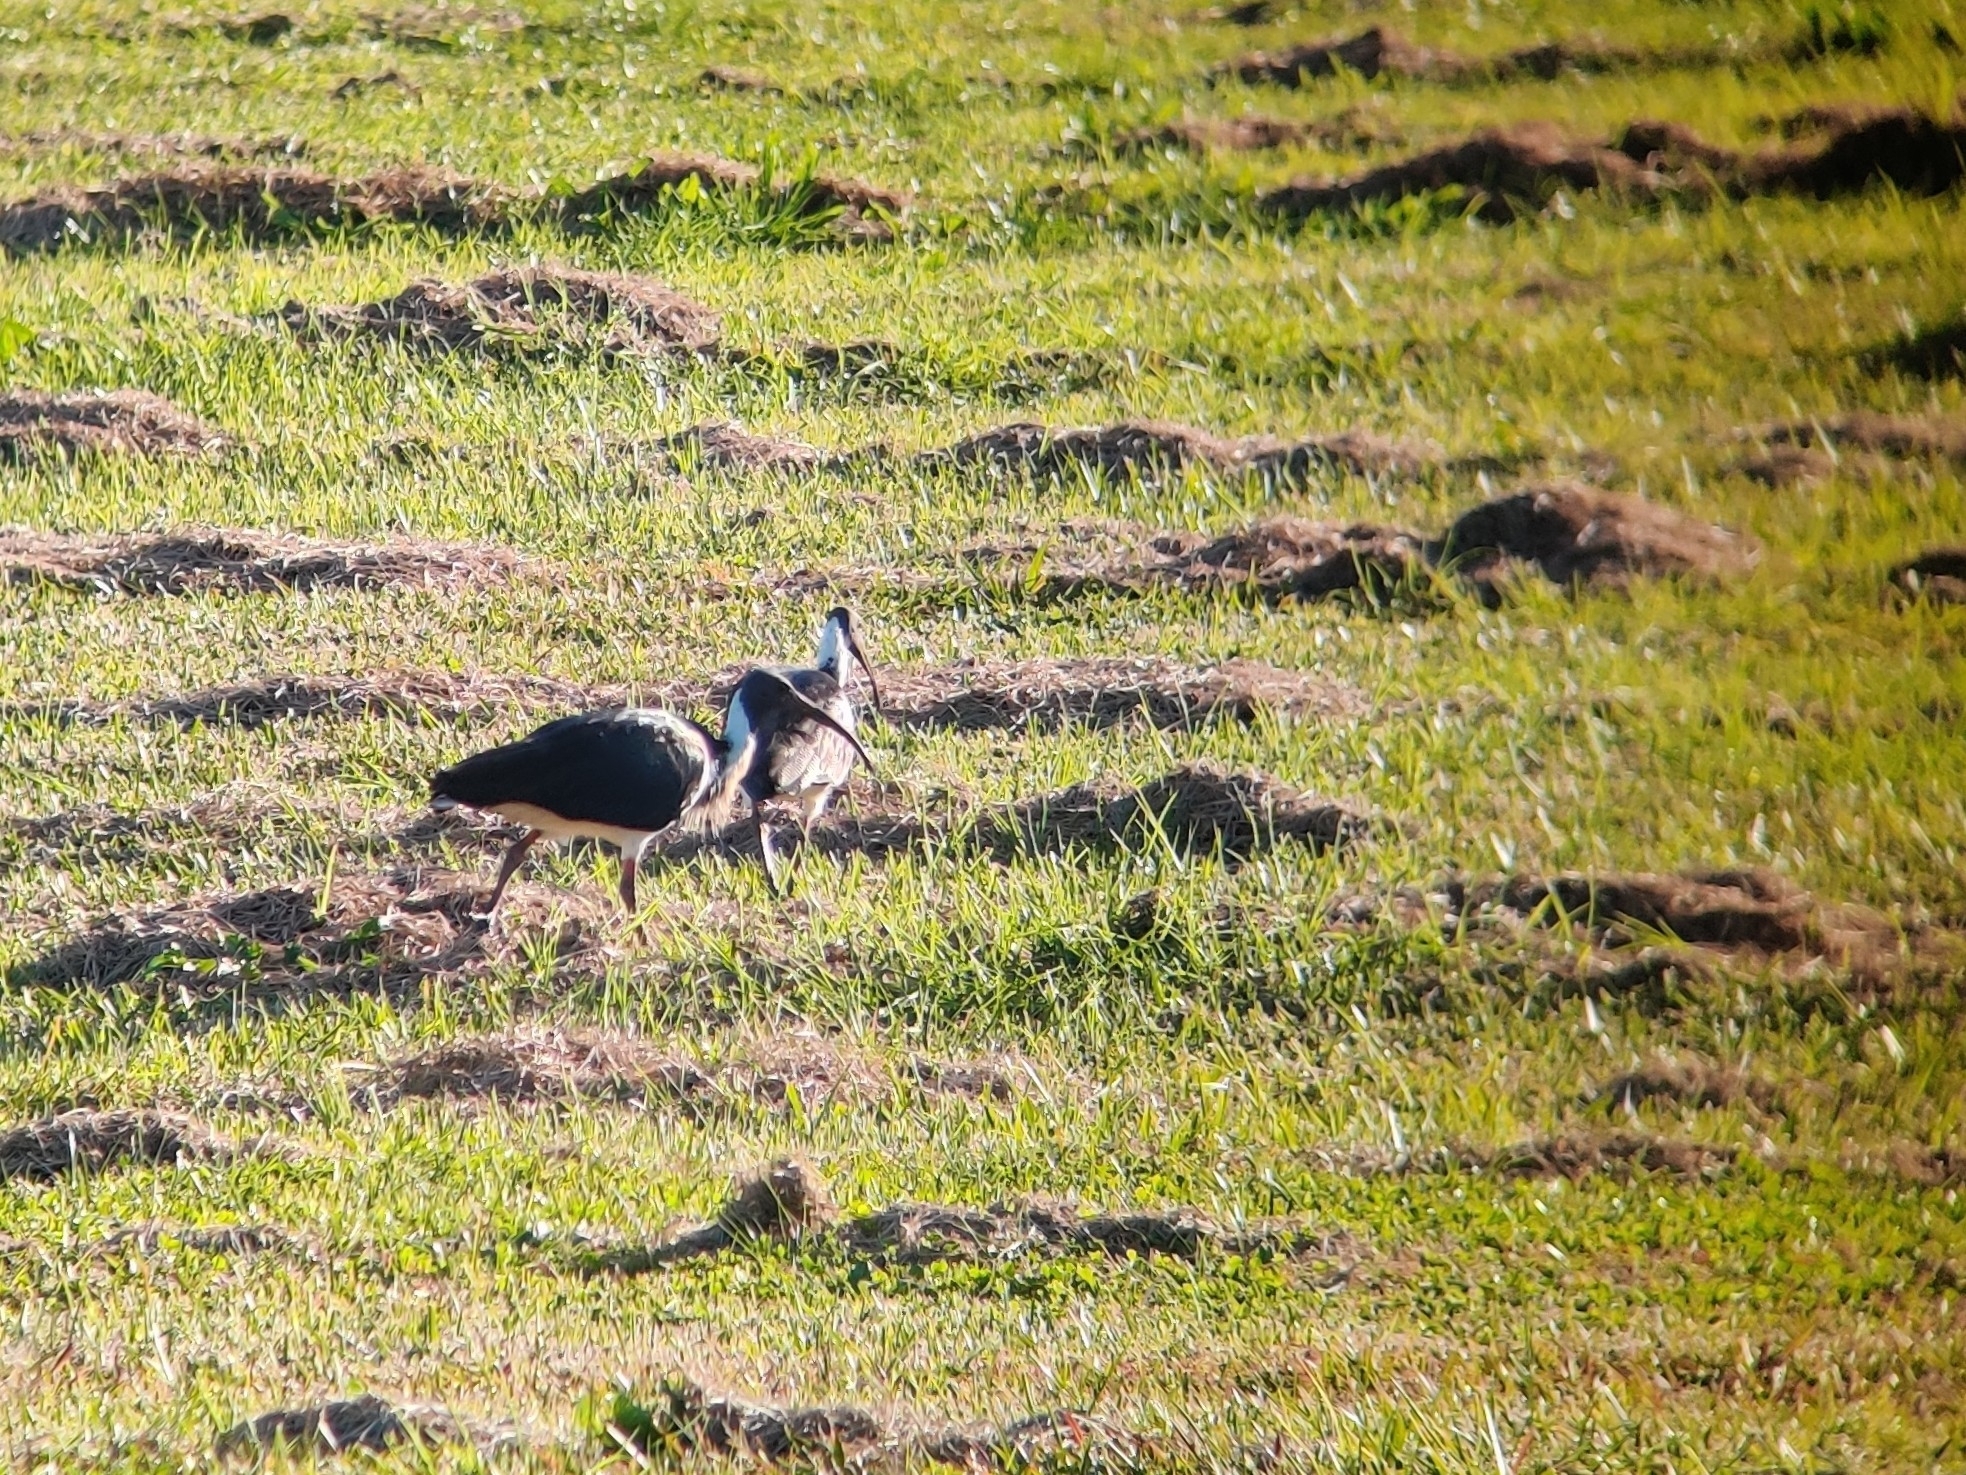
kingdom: Animalia
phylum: Chordata
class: Aves
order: Pelecaniformes
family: Threskiornithidae
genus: Threskiornis
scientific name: Threskiornis spinicollis
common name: Straw-necked ibis
